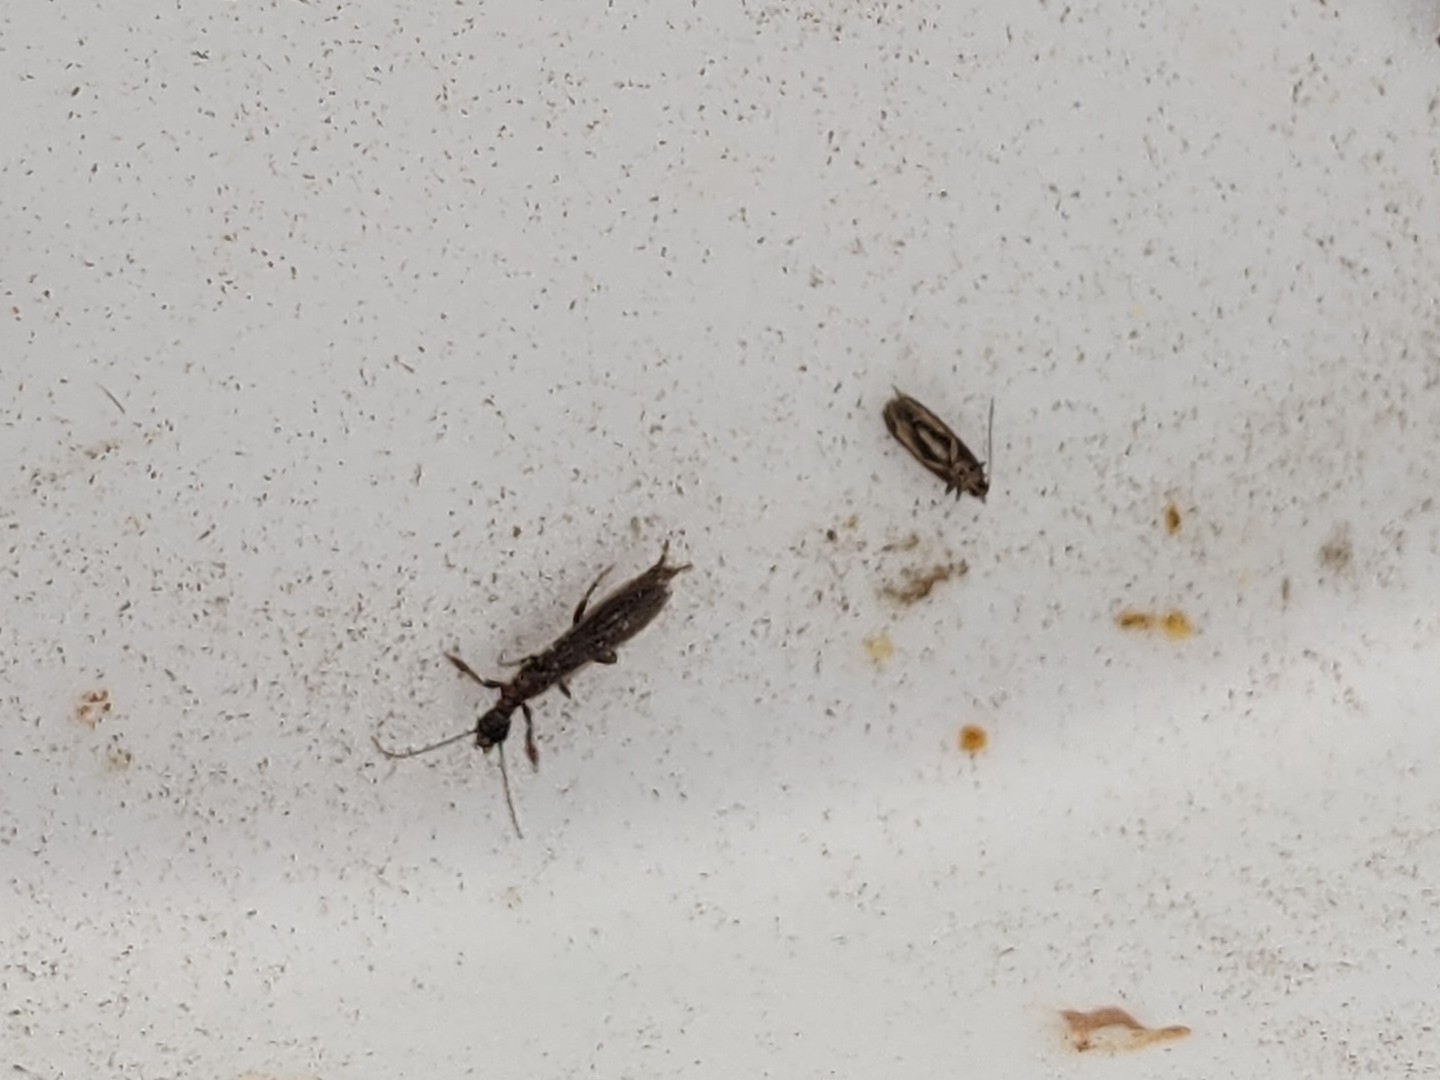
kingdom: Animalia
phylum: Arthropoda
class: Insecta
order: Embioptera
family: Oligotomidae
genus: Oligotoma
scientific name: Oligotoma nigra
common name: Black webspinner
